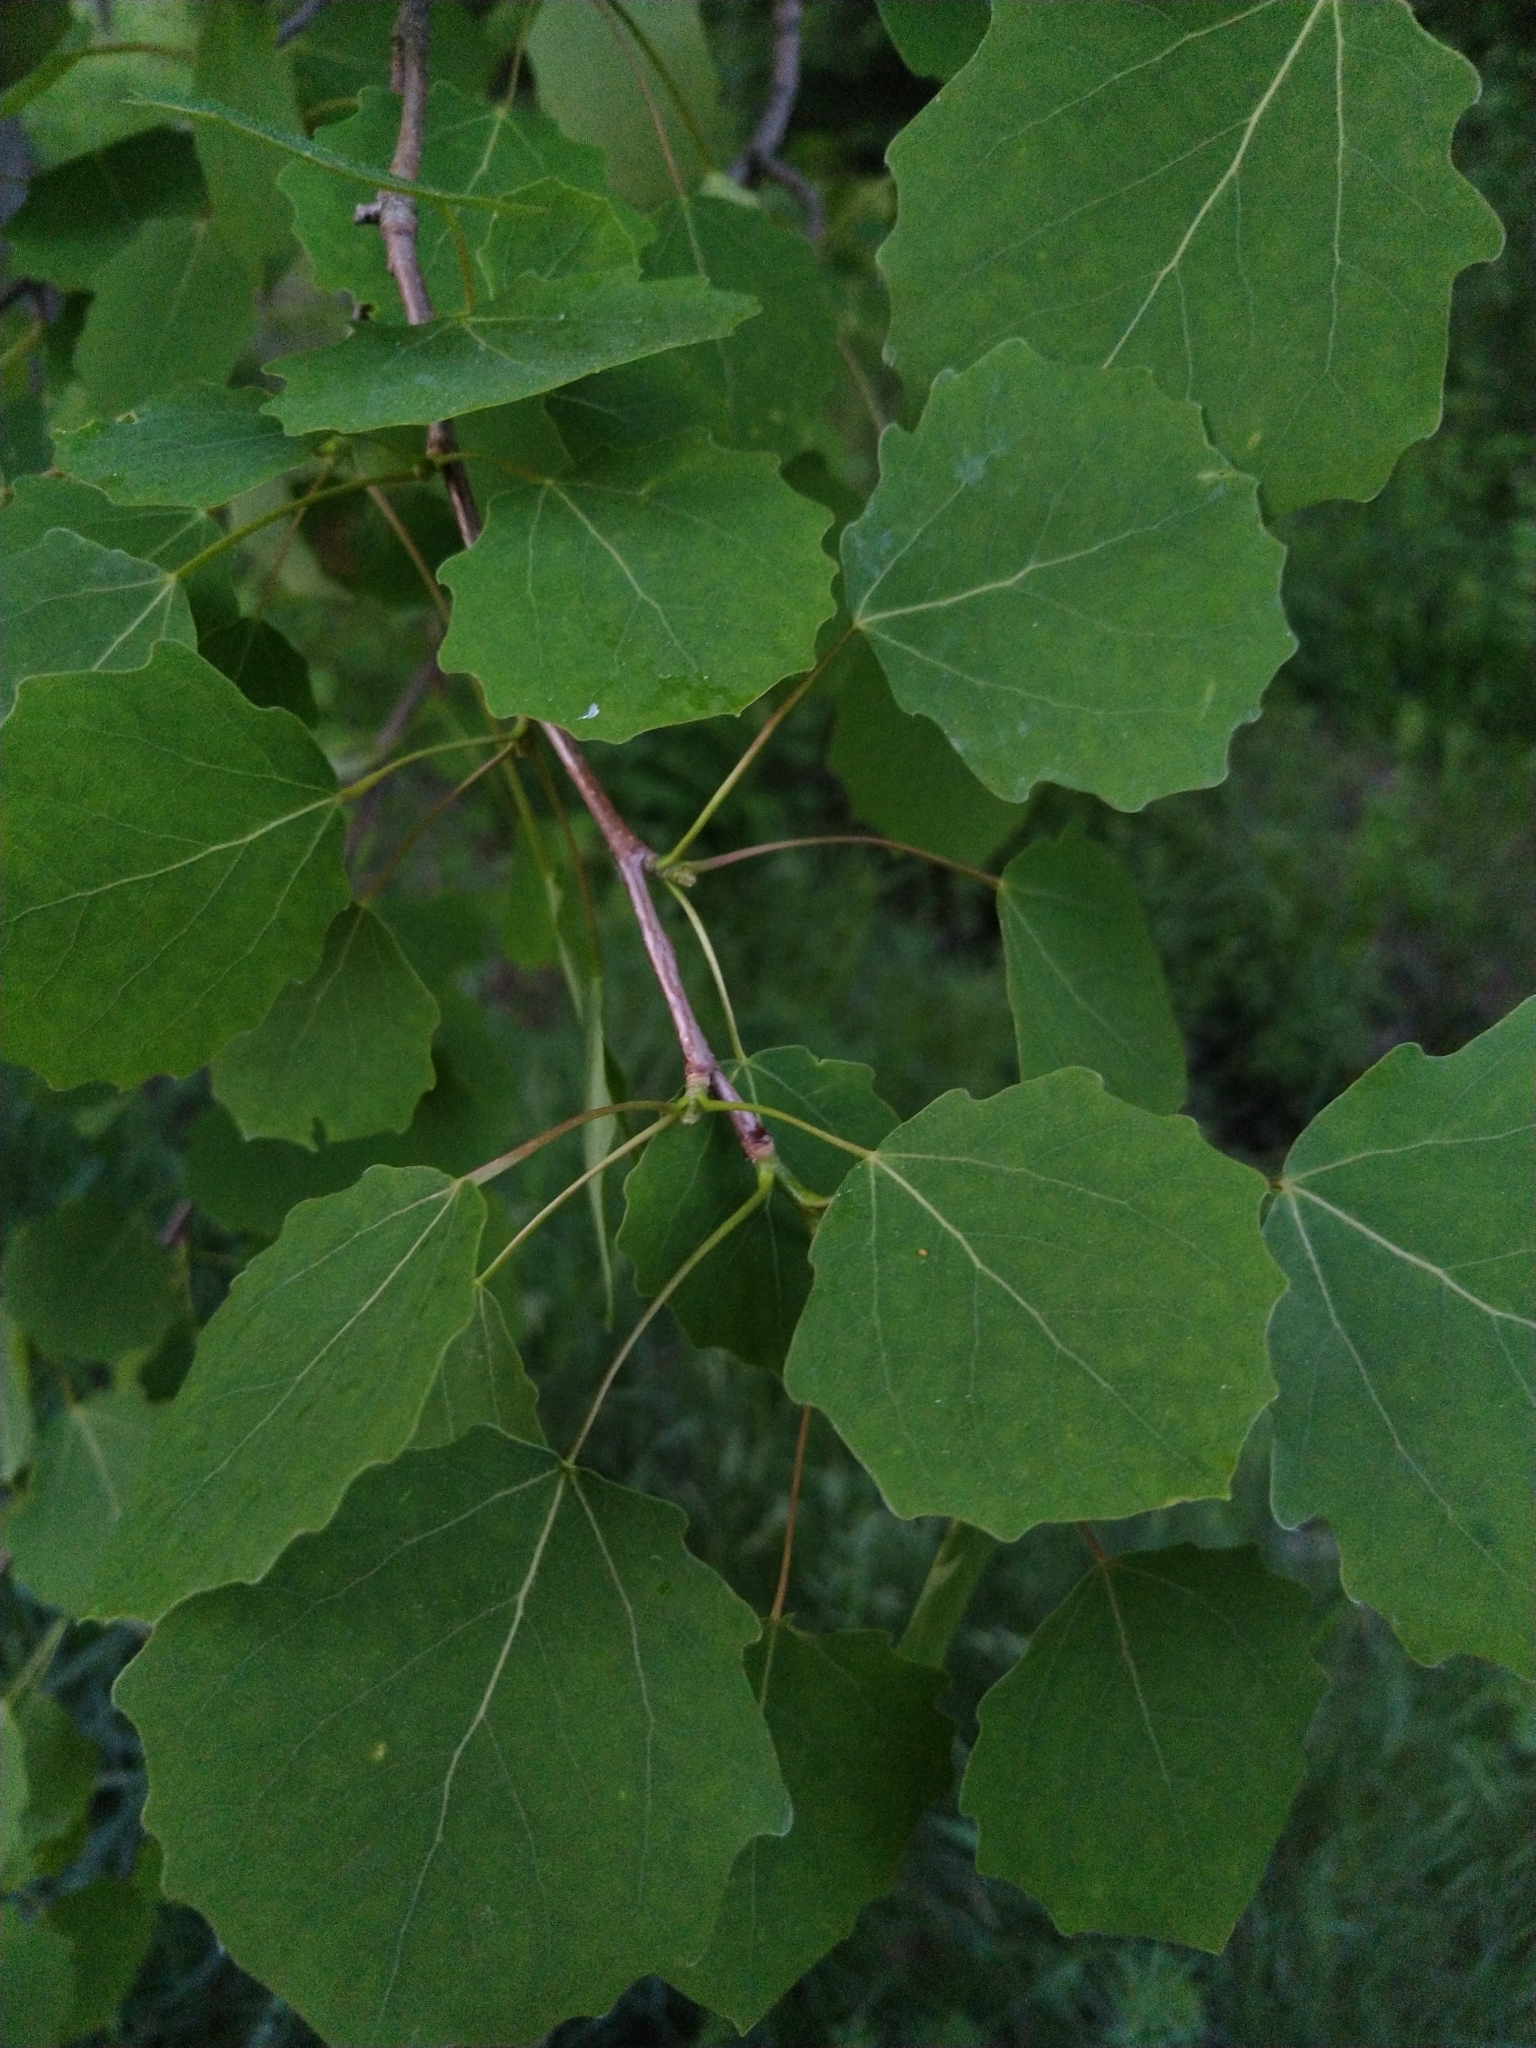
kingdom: Plantae
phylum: Tracheophyta
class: Magnoliopsida
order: Malpighiales
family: Salicaceae
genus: Populus
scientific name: Populus tremula
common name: European aspen
